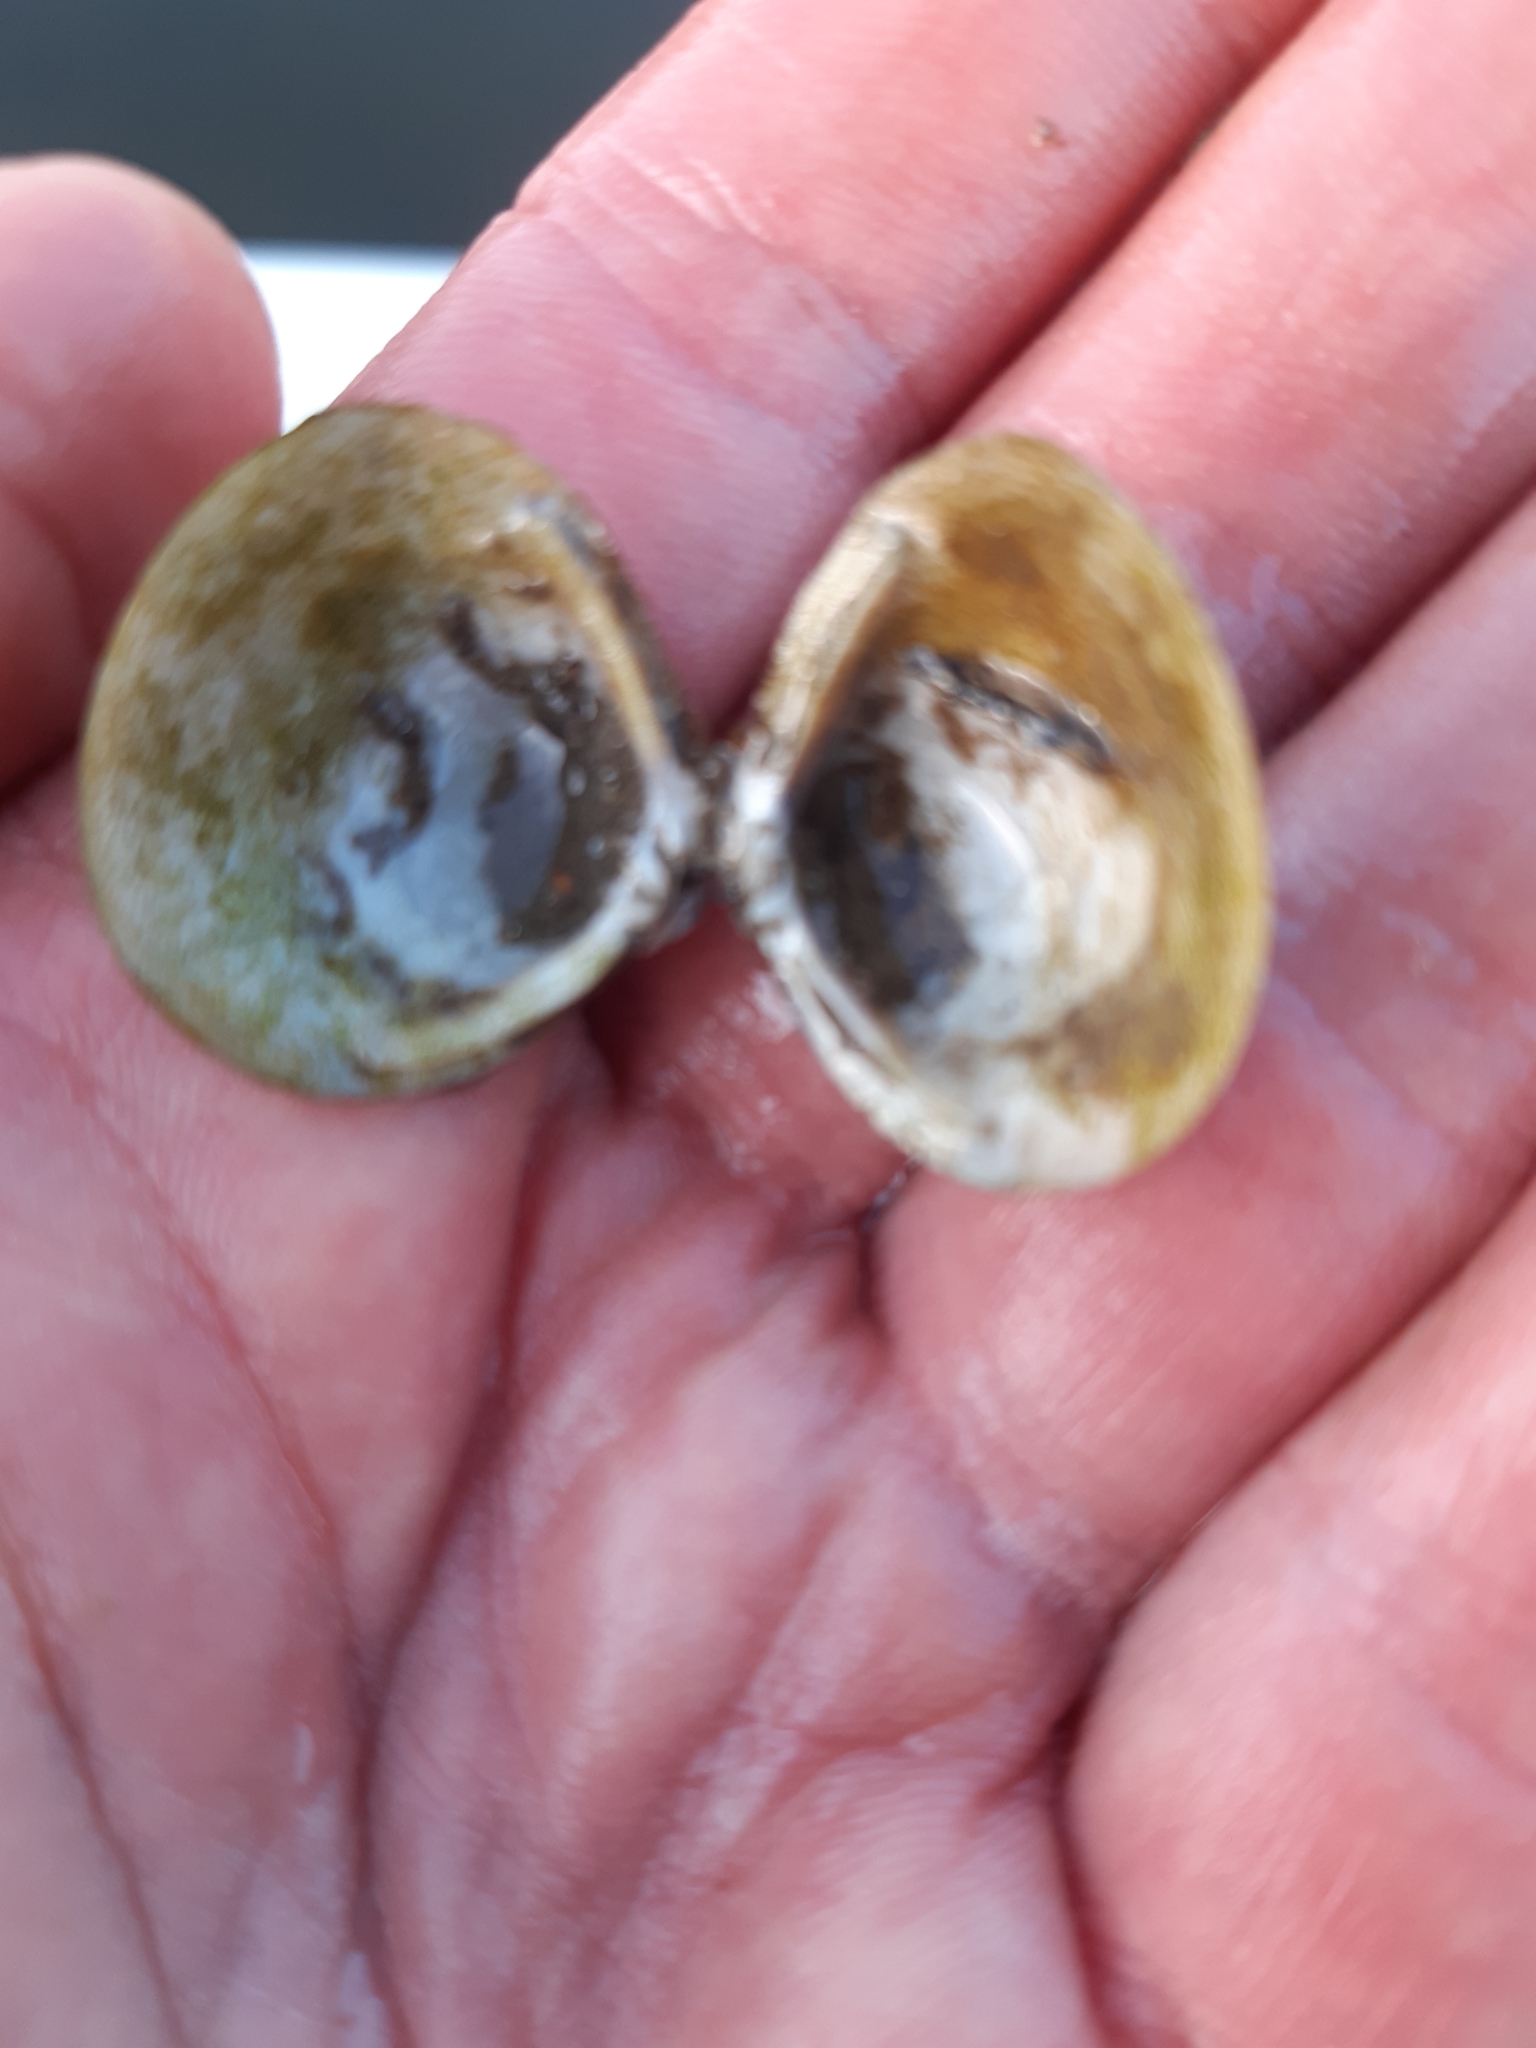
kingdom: Animalia
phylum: Mollusca
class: Bivalvia
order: Venerida
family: Cyrenidae
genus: Corbicula
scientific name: Corbicula fluminea
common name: Asian clam
